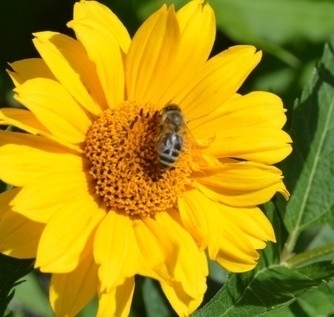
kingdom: Animalia
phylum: Arthropoda
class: Insecta
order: Hymenoptera
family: Apidae
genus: Apis
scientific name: Apis mellifera
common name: Honey bee
